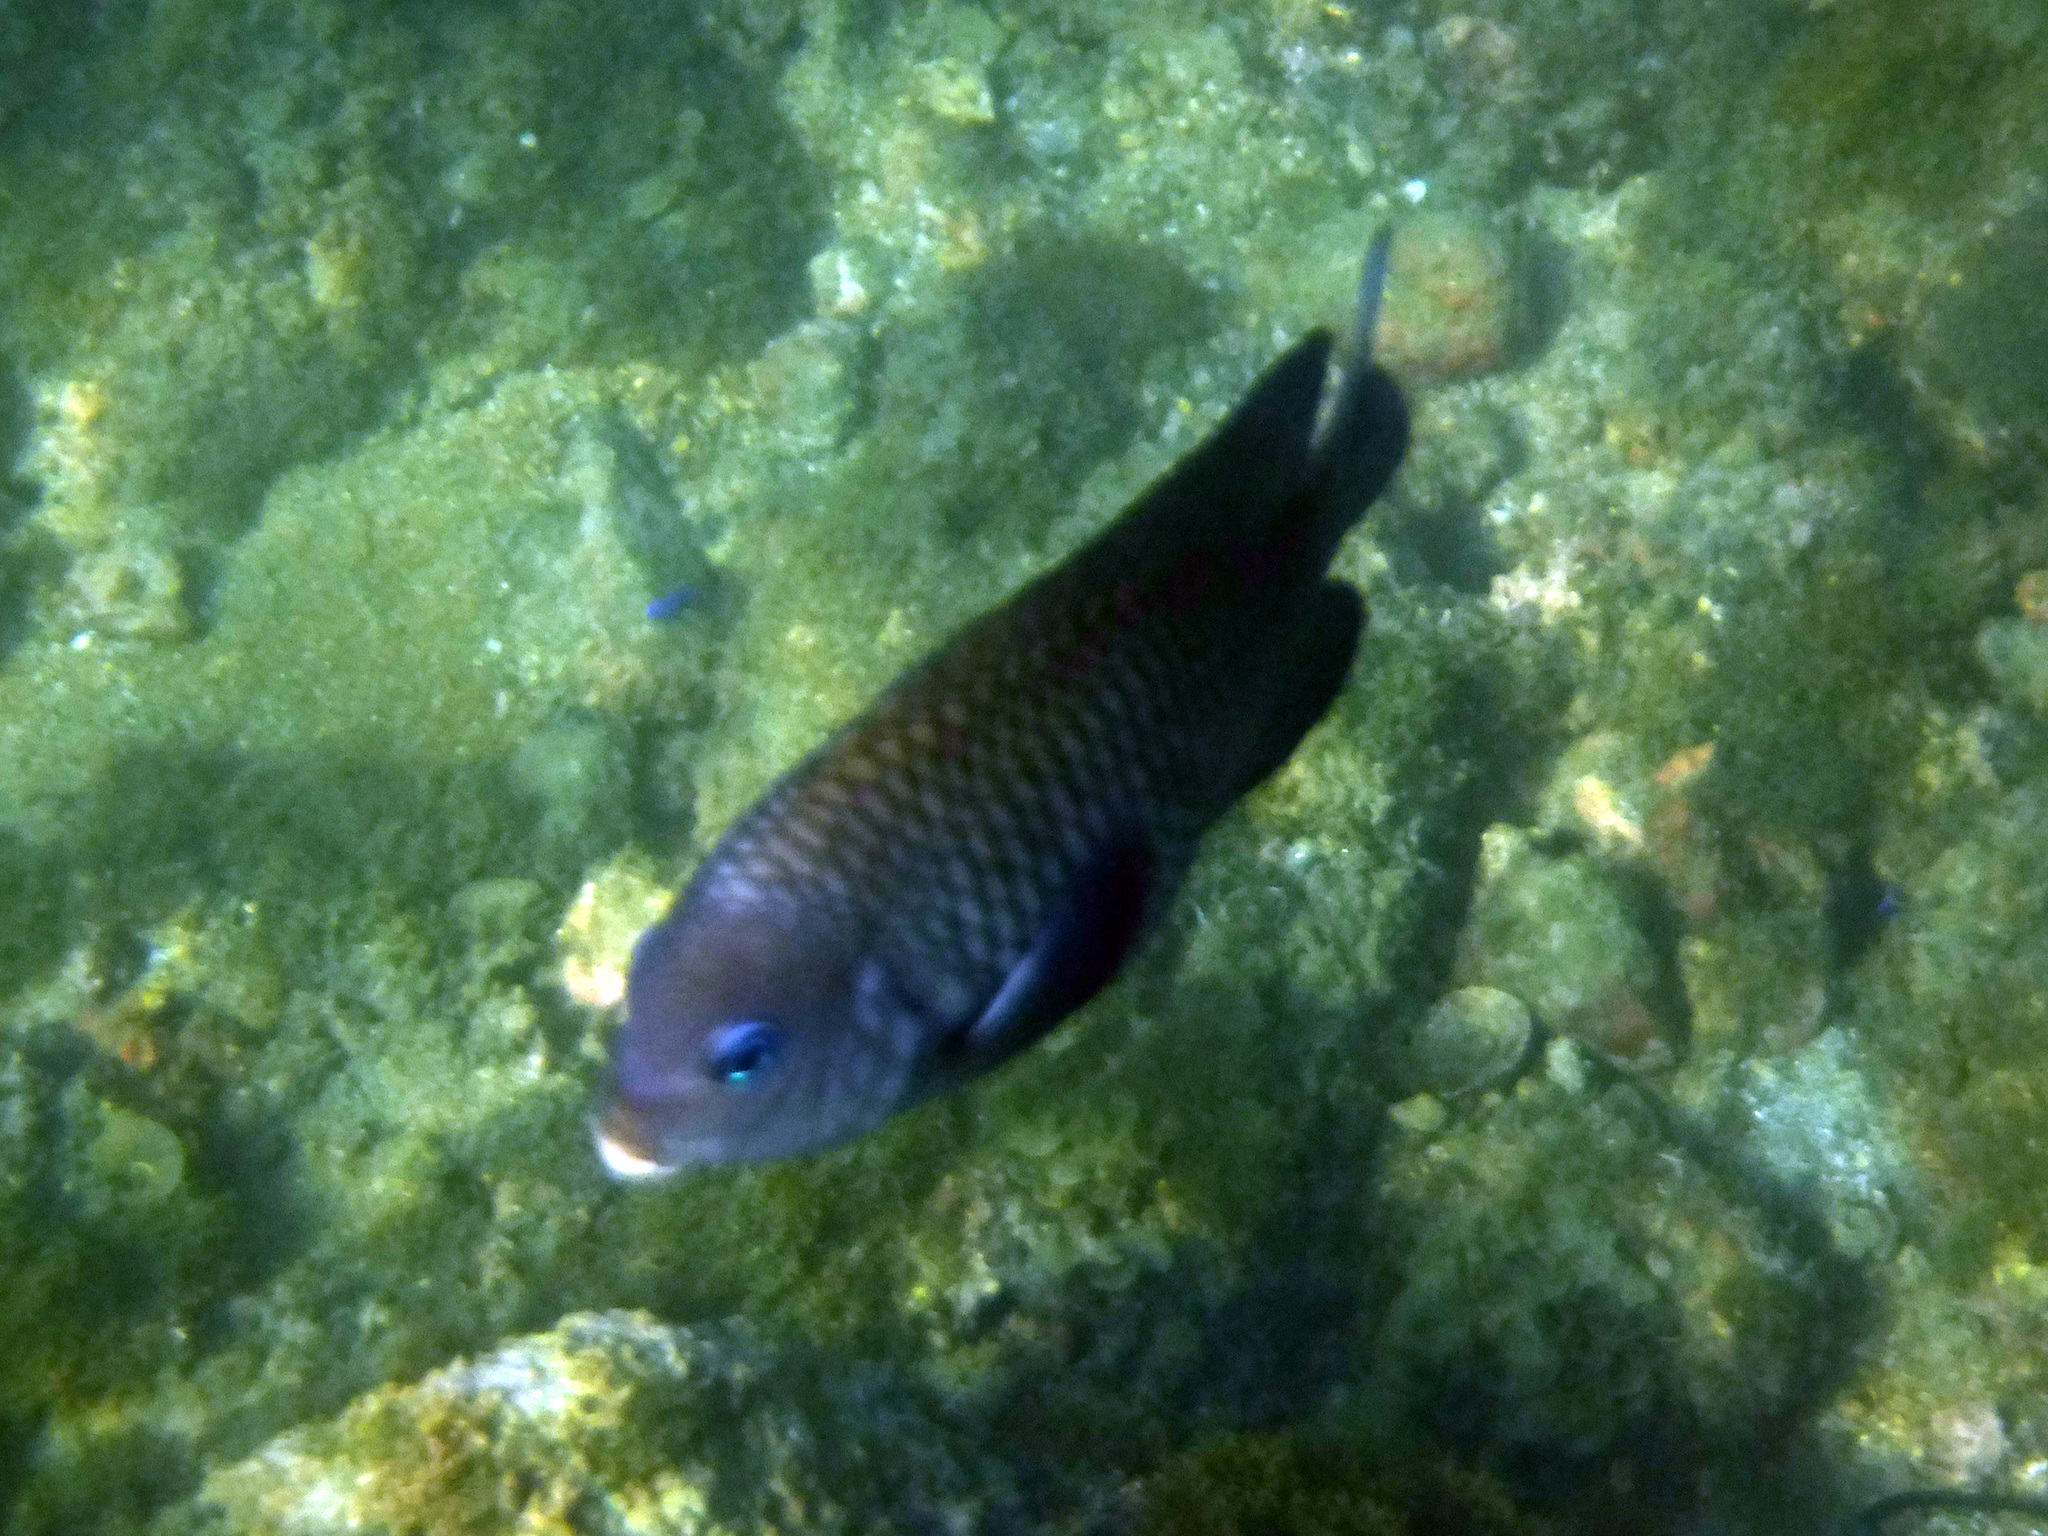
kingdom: Animalia
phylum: Chordata
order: Perciformes
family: Pomacentridae
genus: Stegastes
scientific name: Stegastes acapulcoensis
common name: Acapulco damselfish
